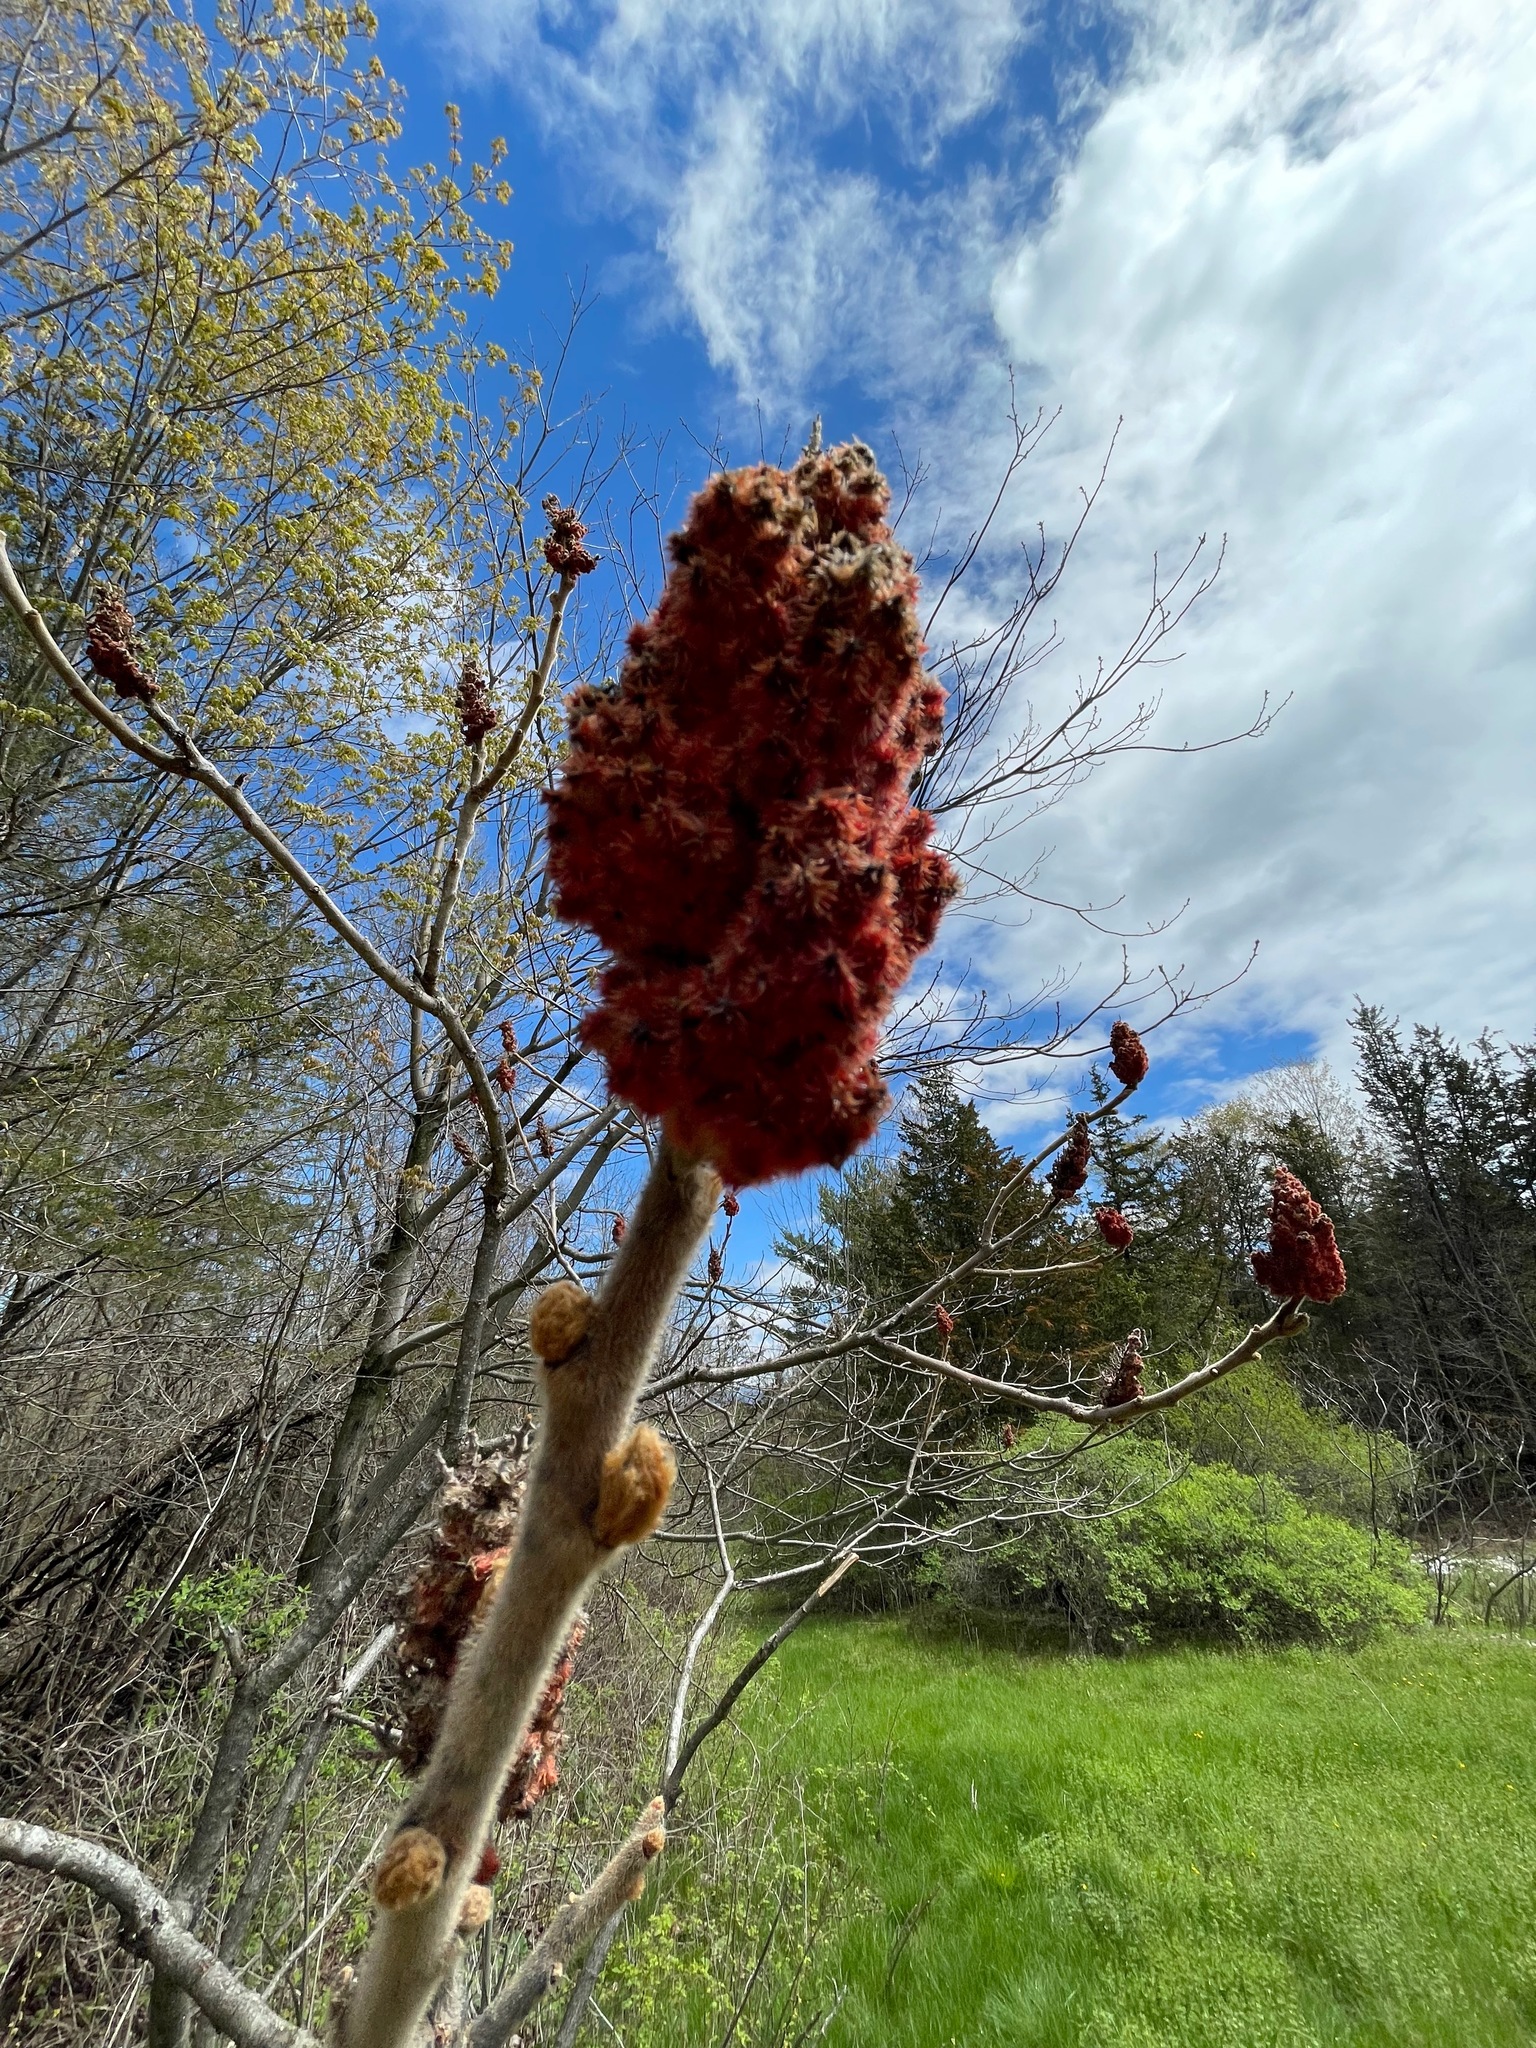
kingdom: Plantae
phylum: Tracheophyta
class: Magnoliopsida
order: Sapindales
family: Anacardiaceae
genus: Rhus
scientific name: Rhus typhina
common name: Staghorn sumac
